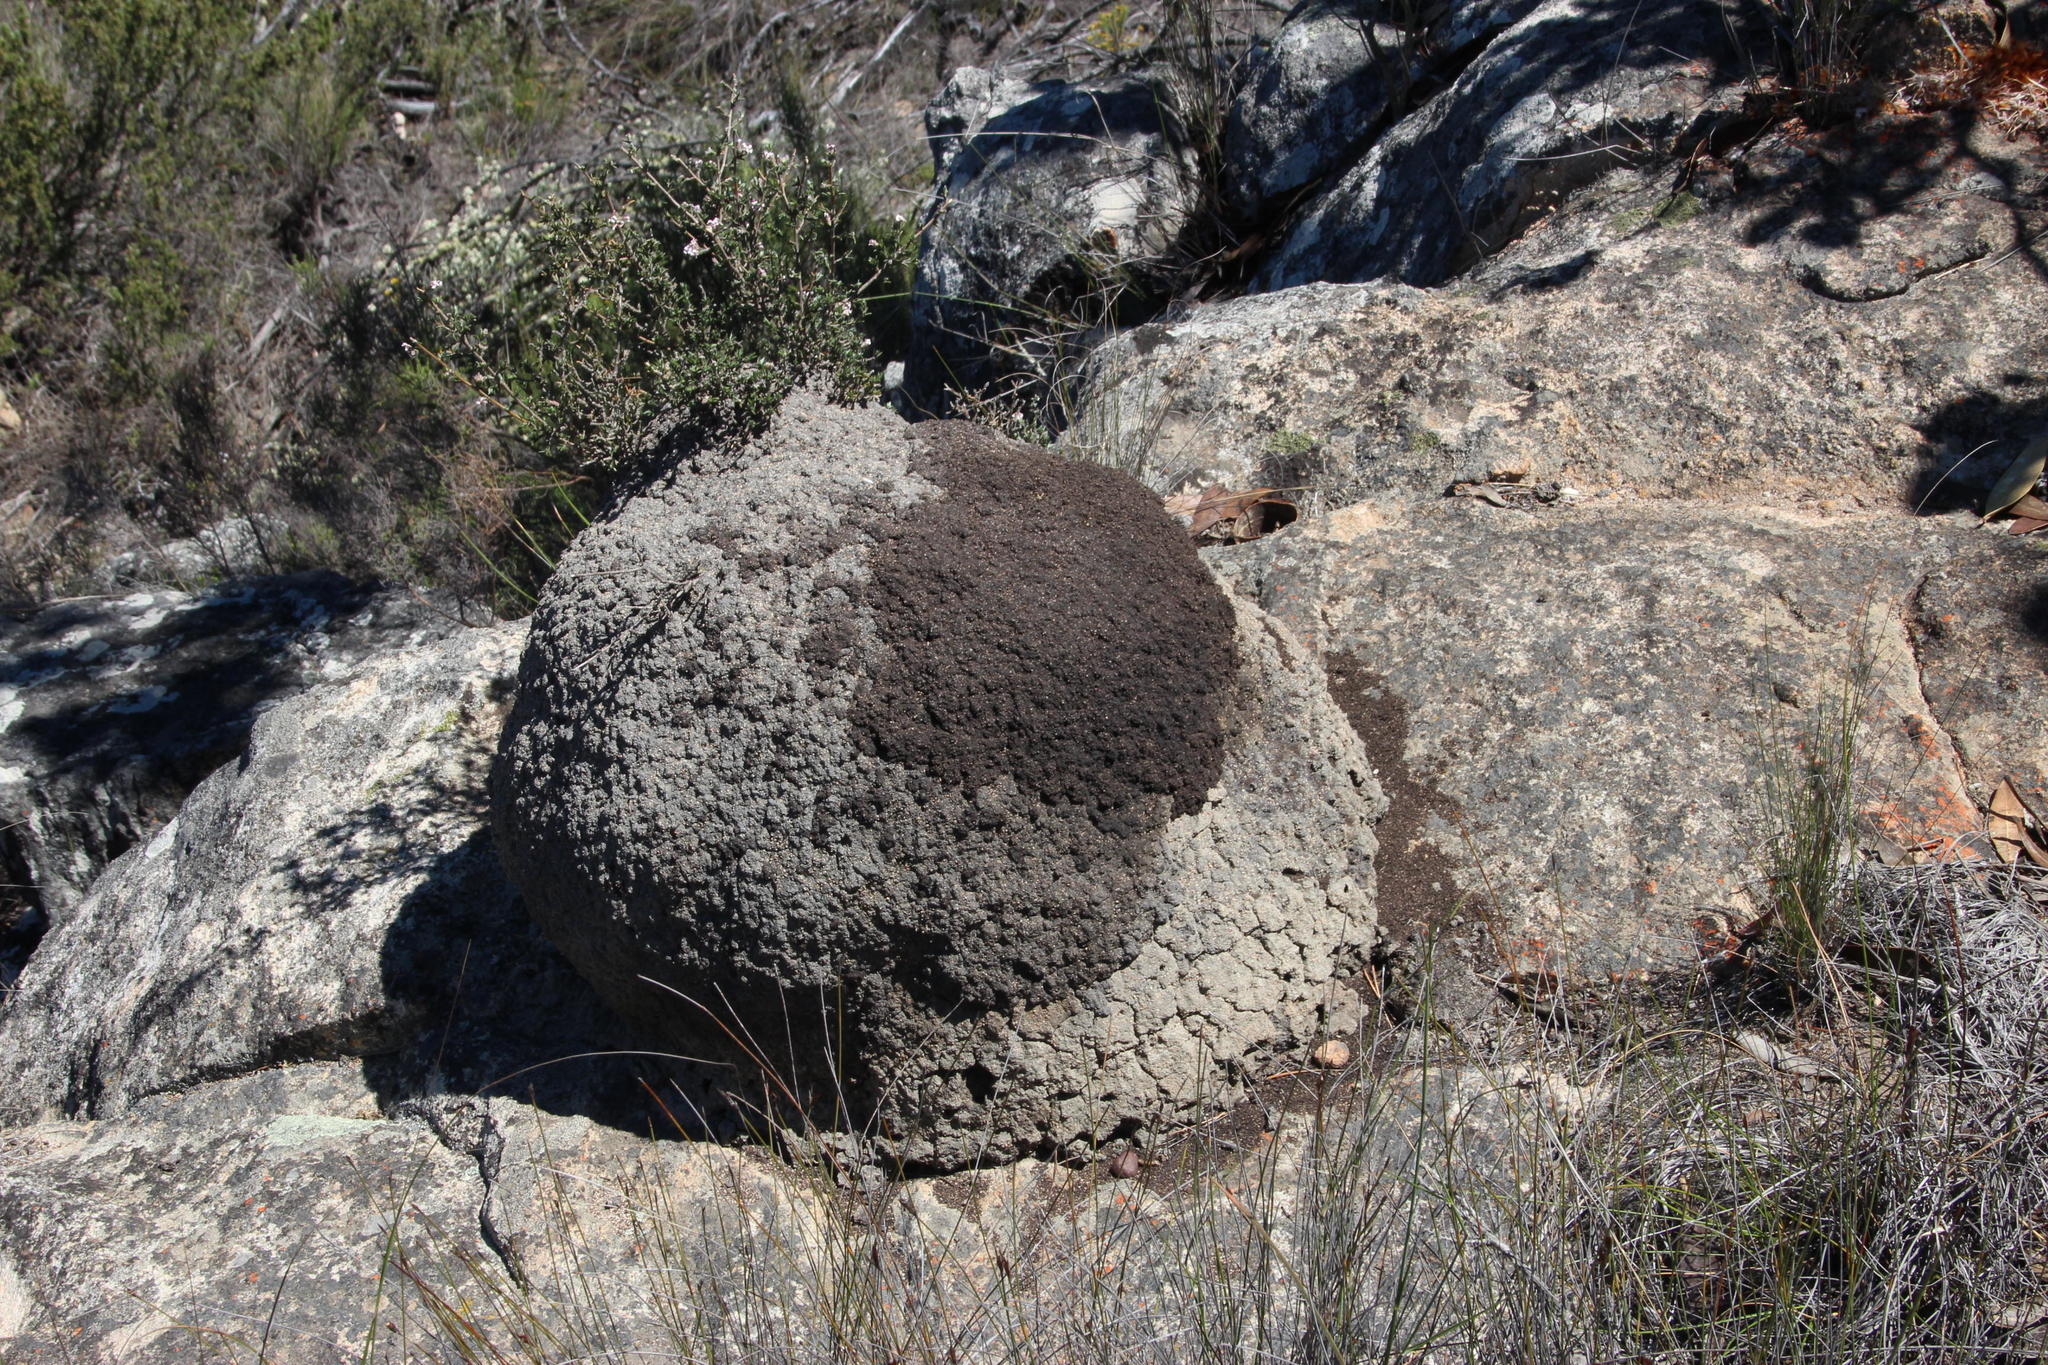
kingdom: Animalia
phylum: Arthropoda
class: Insecta
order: Blattodea
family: Termitidae
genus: Amitermes
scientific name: Amitermes hastatus
